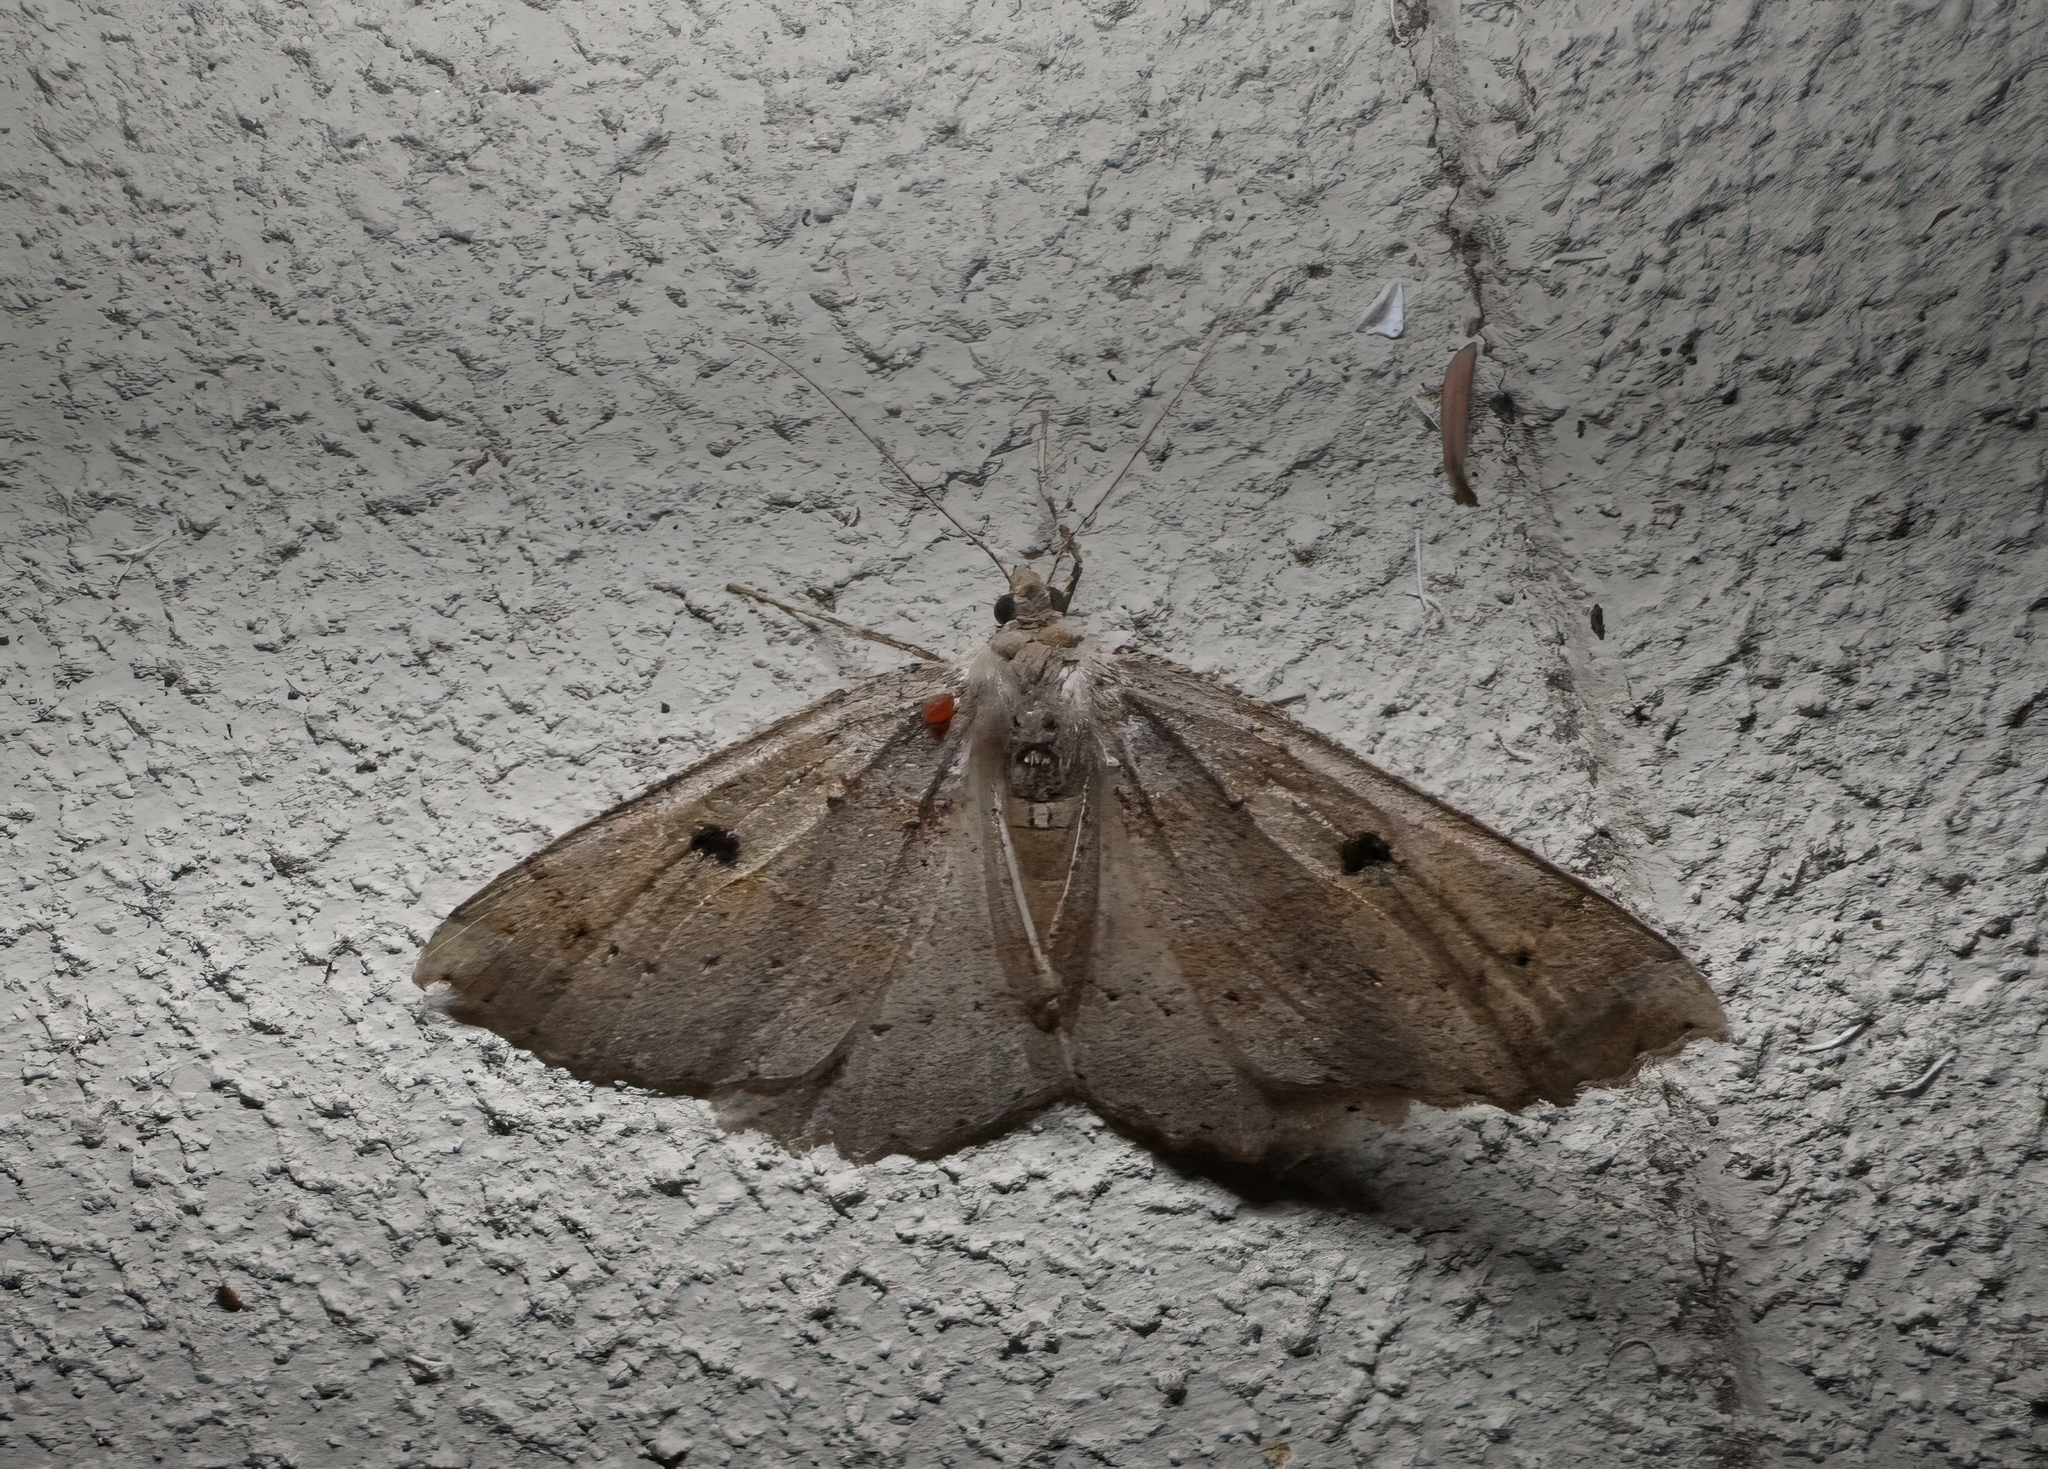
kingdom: Animalia
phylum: Arthropoda
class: Insecta
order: Lepidoptera
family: Geometridae
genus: Cleora
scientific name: Cleora scriptaria
